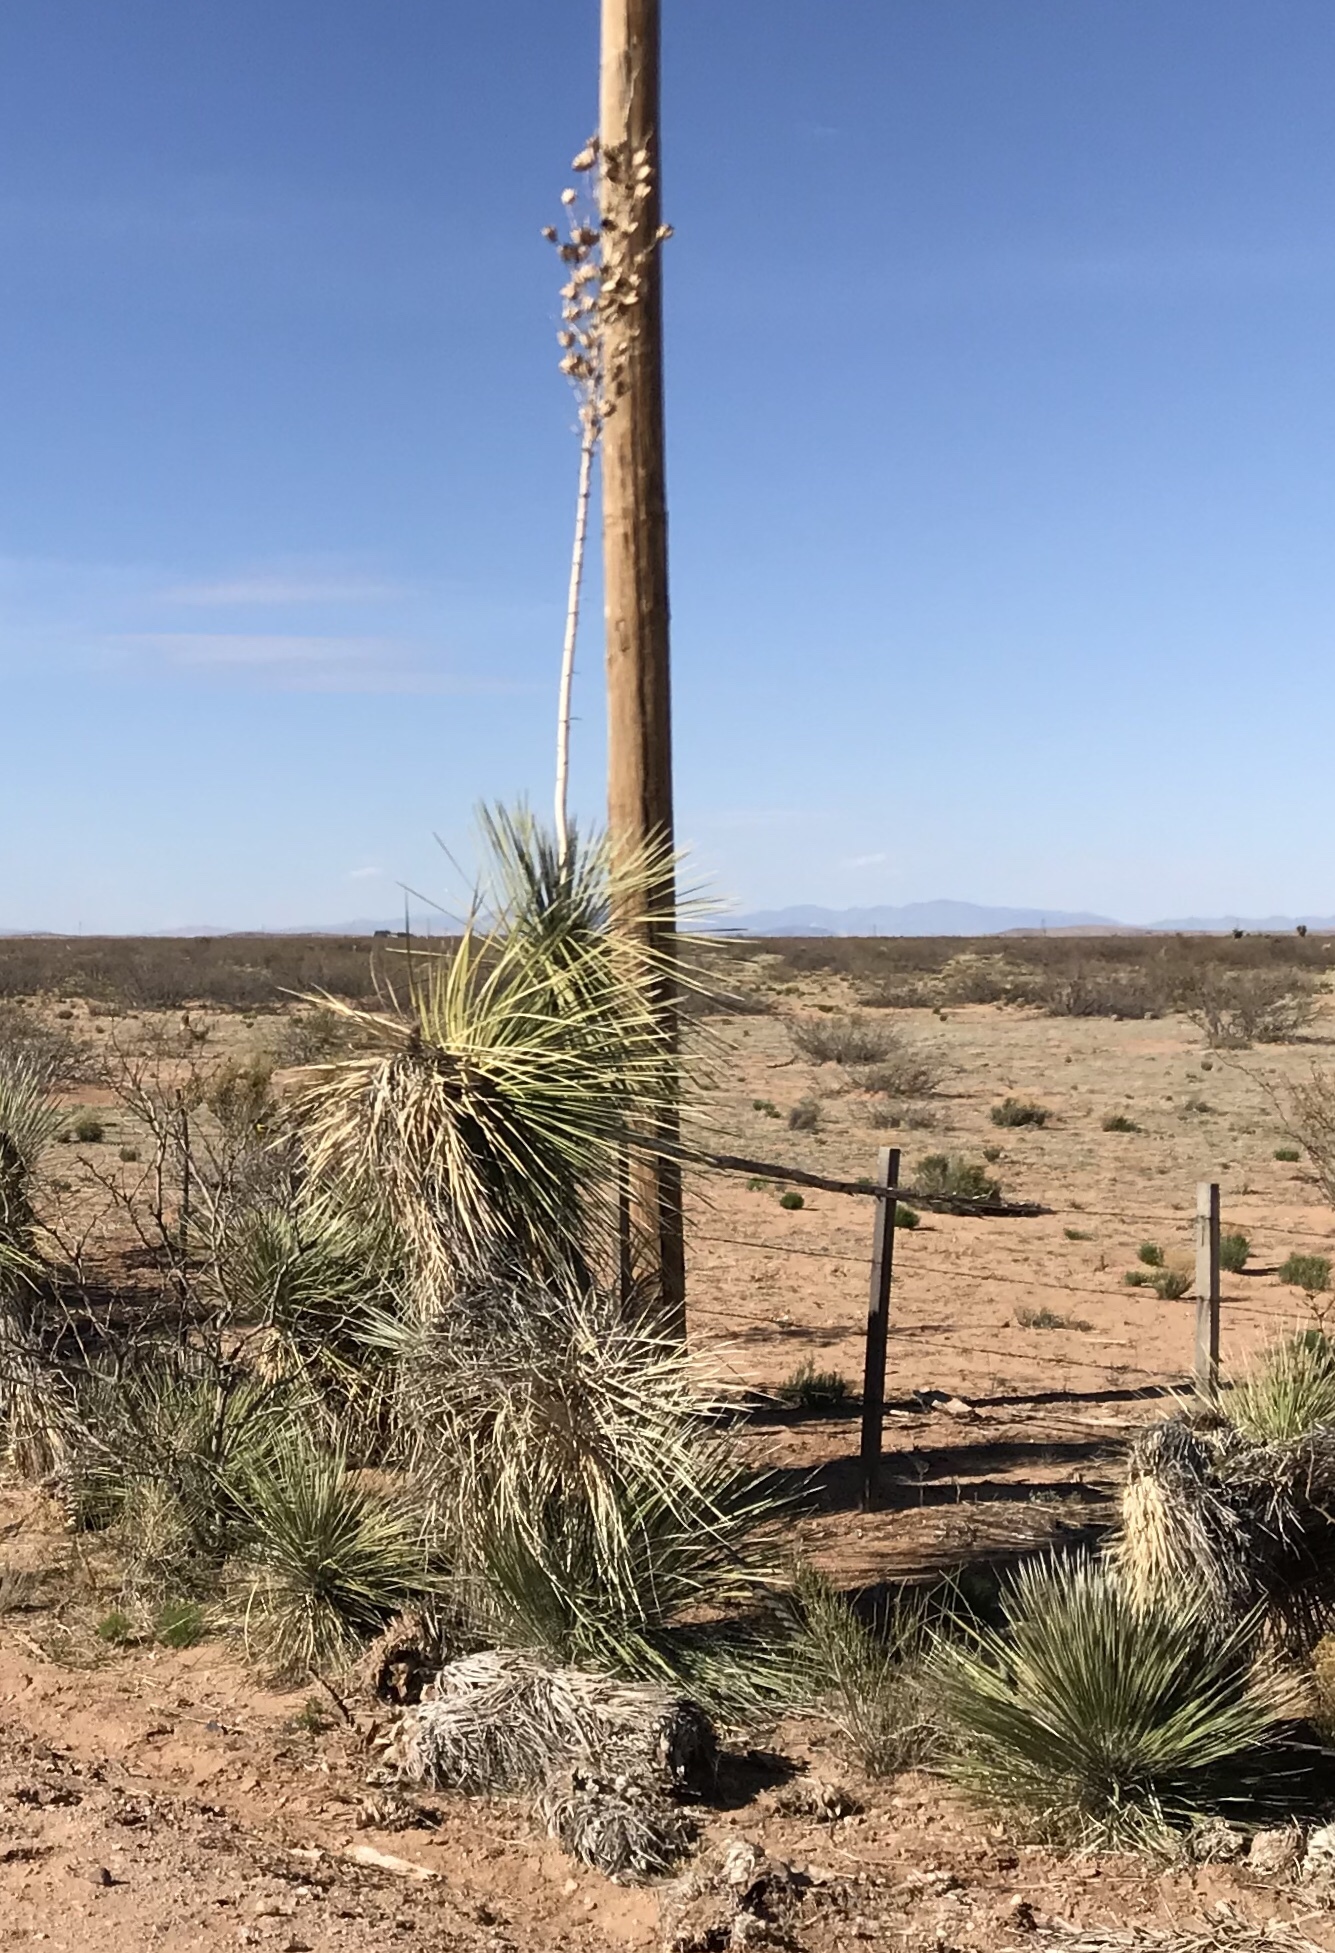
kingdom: Plantae
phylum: Tracheophyta
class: Liliopsida
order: Asparagales
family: Asparagaceae
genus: Yucca
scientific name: Yucca elata
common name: Palmella
